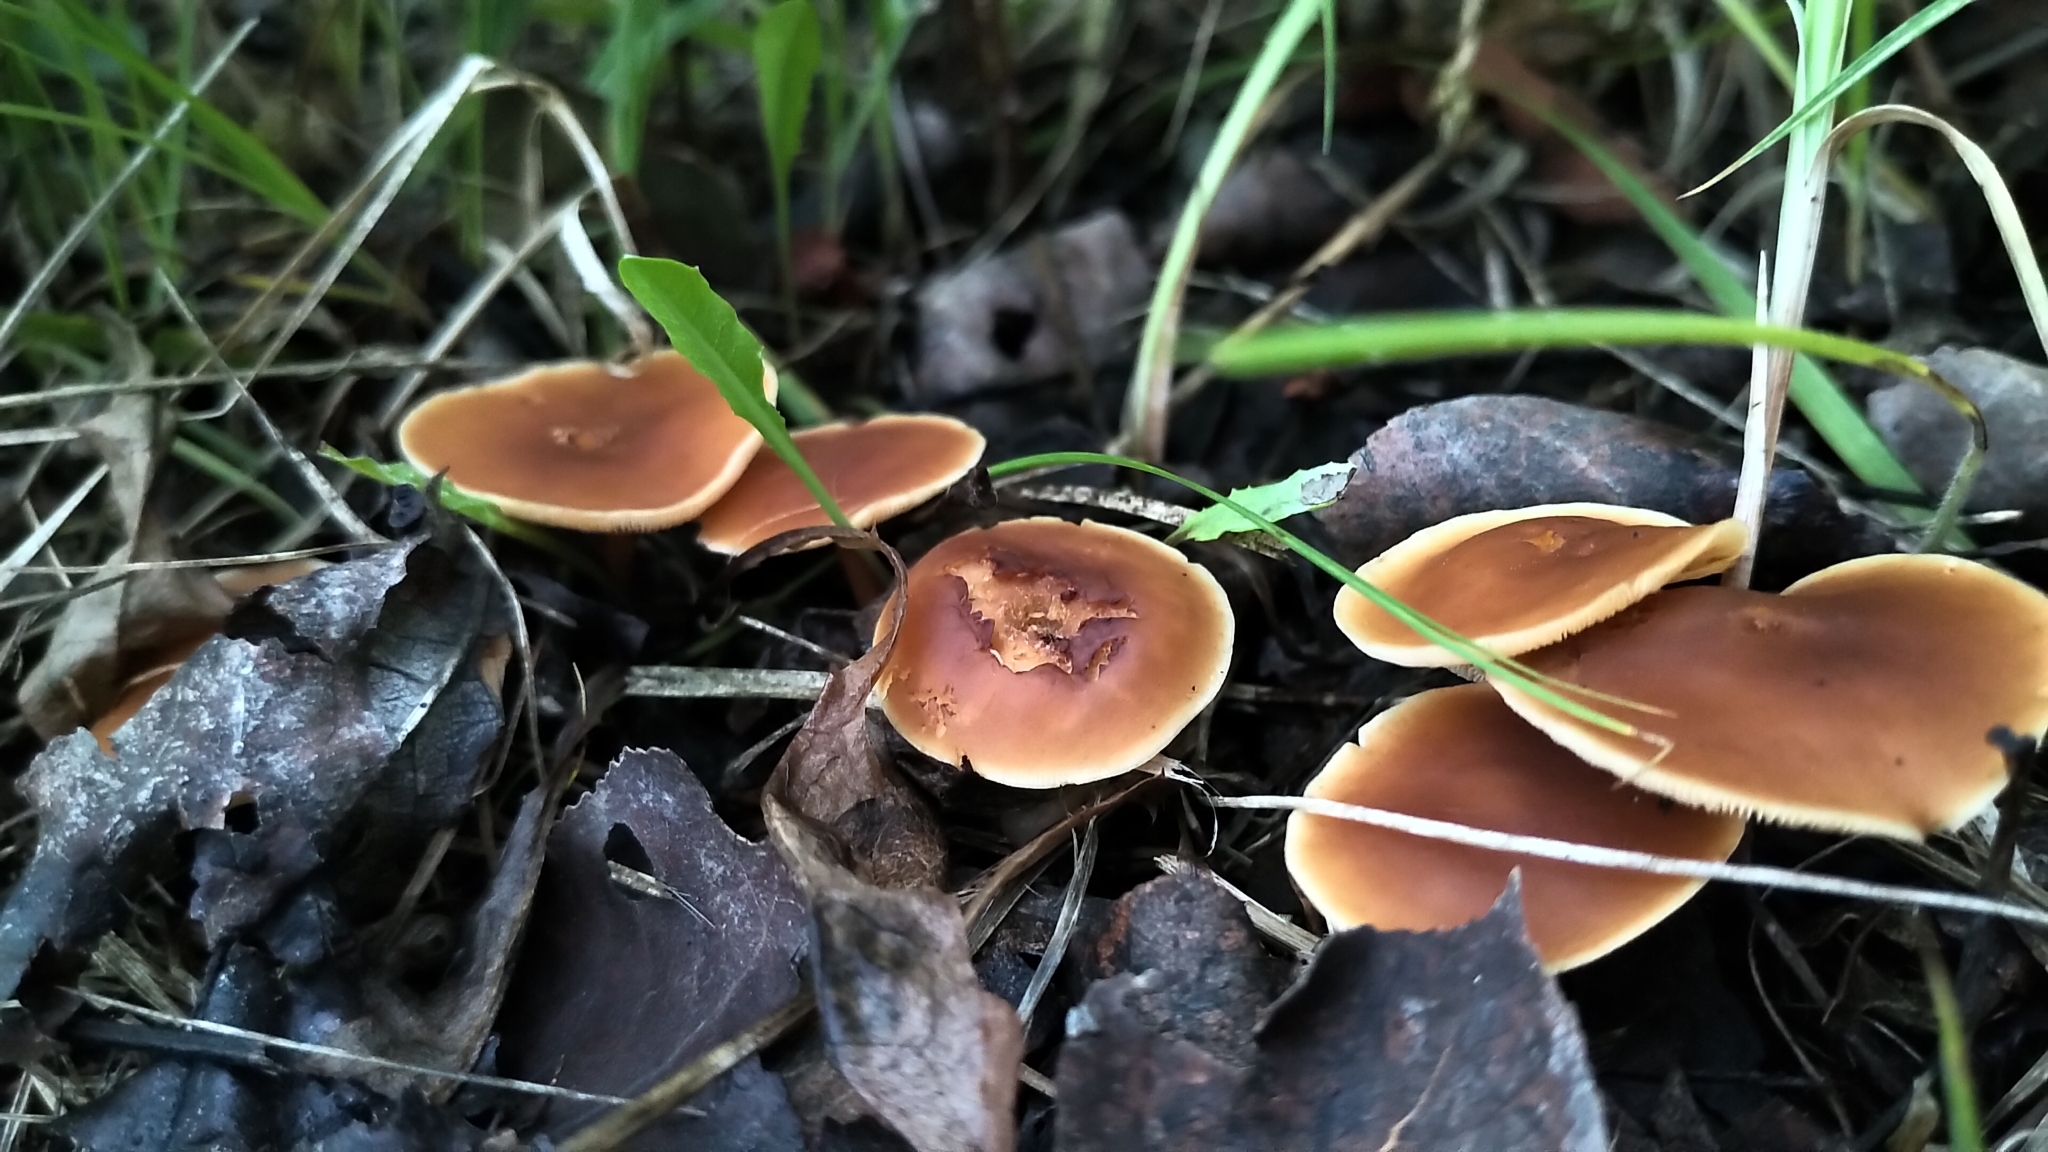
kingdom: Fungi
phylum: Basidiomycota
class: Agaricomycetes
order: Agaricales
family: Omphalotaceae
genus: Gymnopus
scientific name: Gymnopus dryophilus
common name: Penny top
